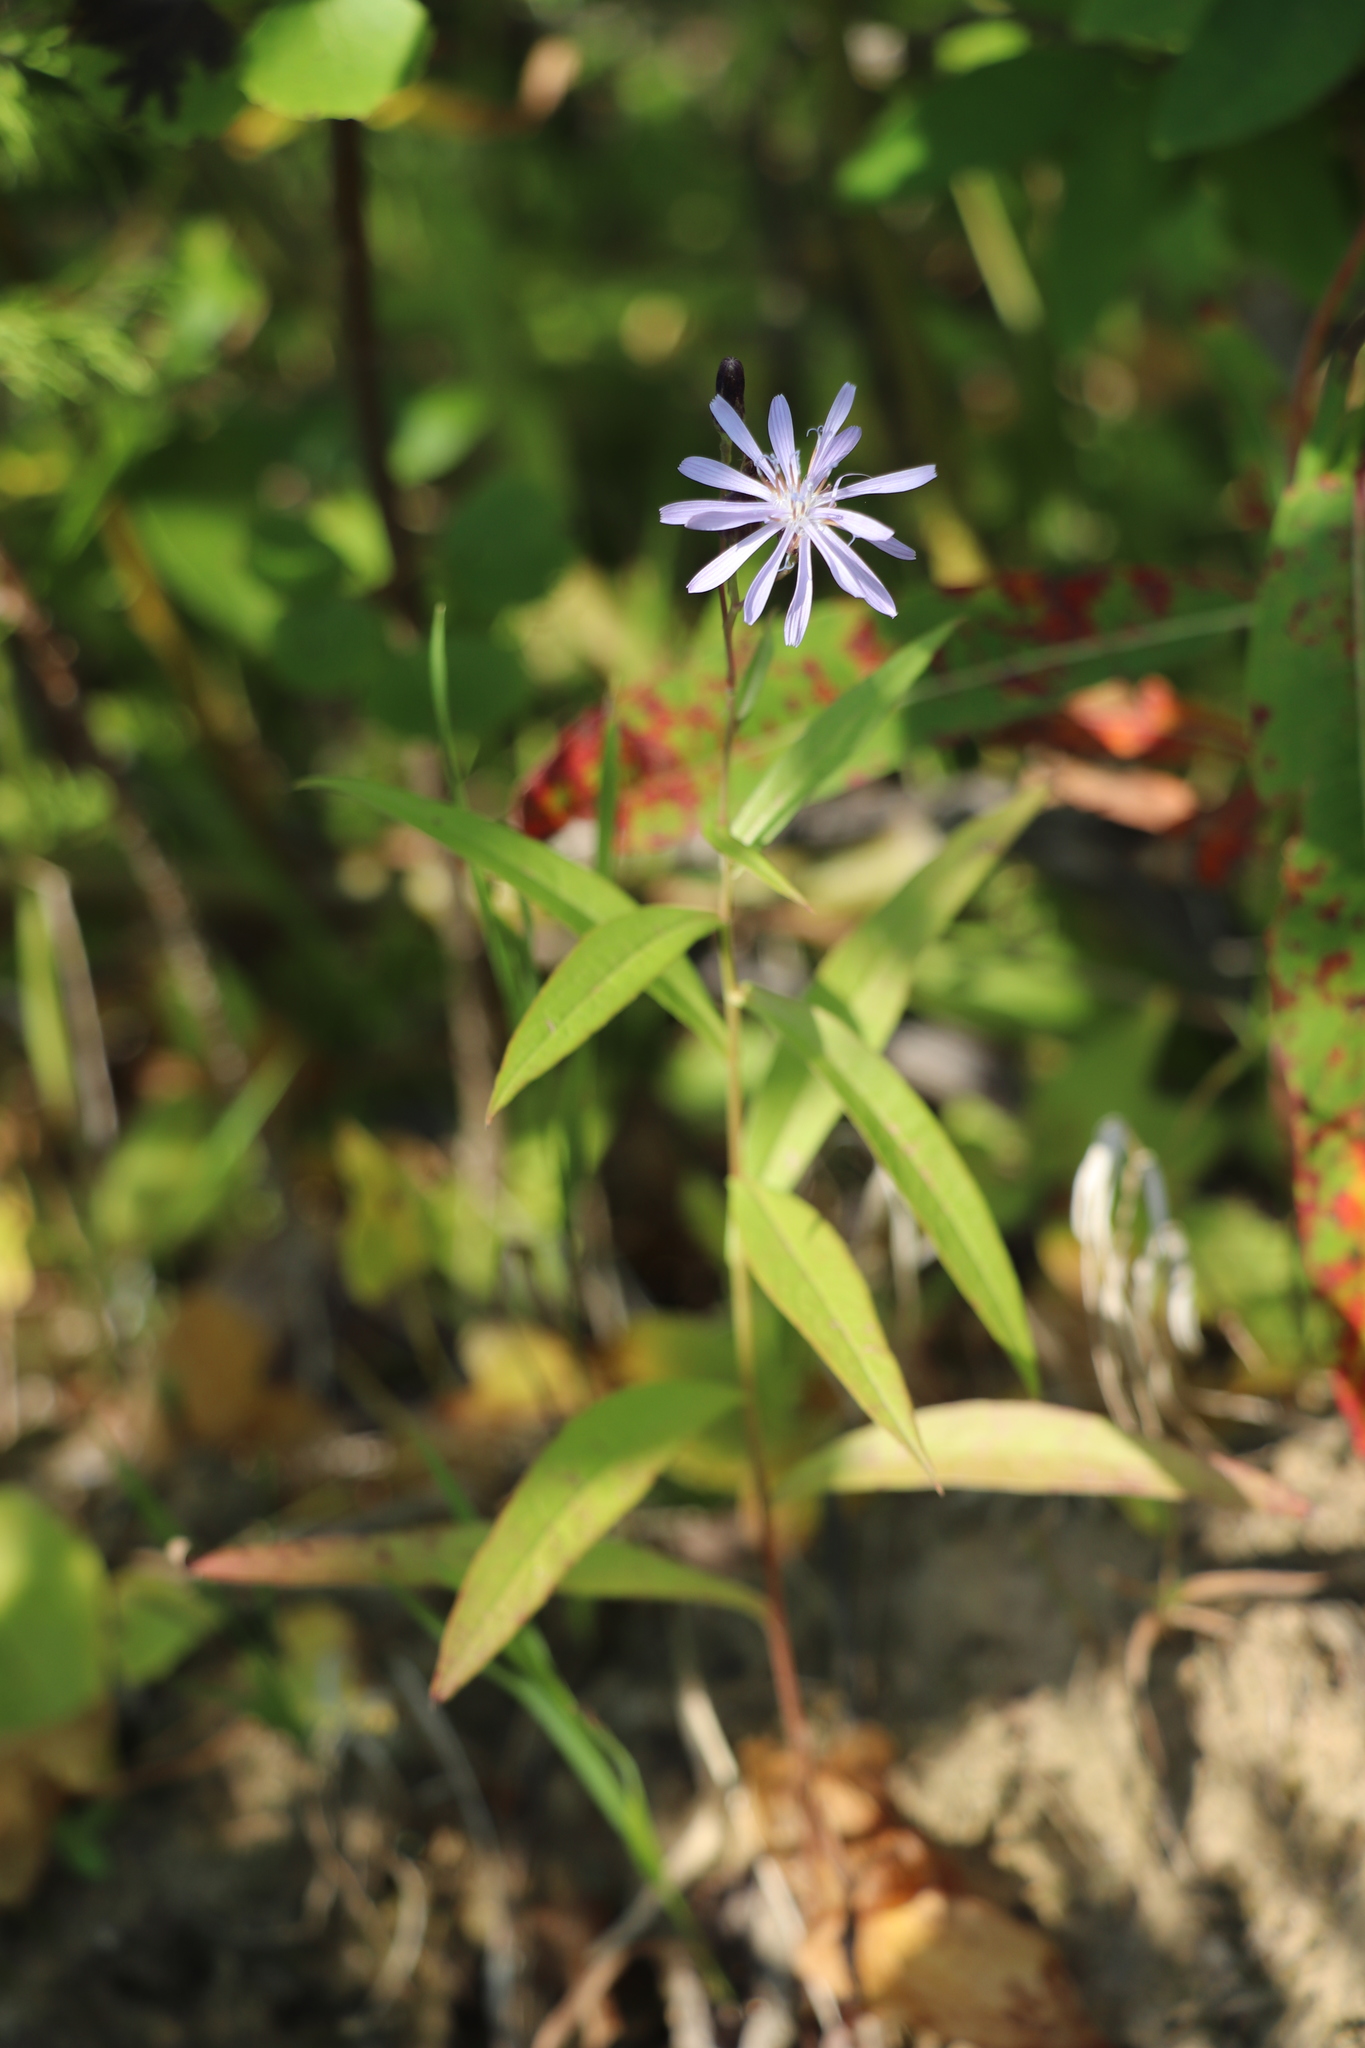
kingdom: Plantae
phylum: Tracheophyta
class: Magnoliopsida
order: Asterales
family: Asteraceae
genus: Lactuca
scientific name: Lactuca sibirica
